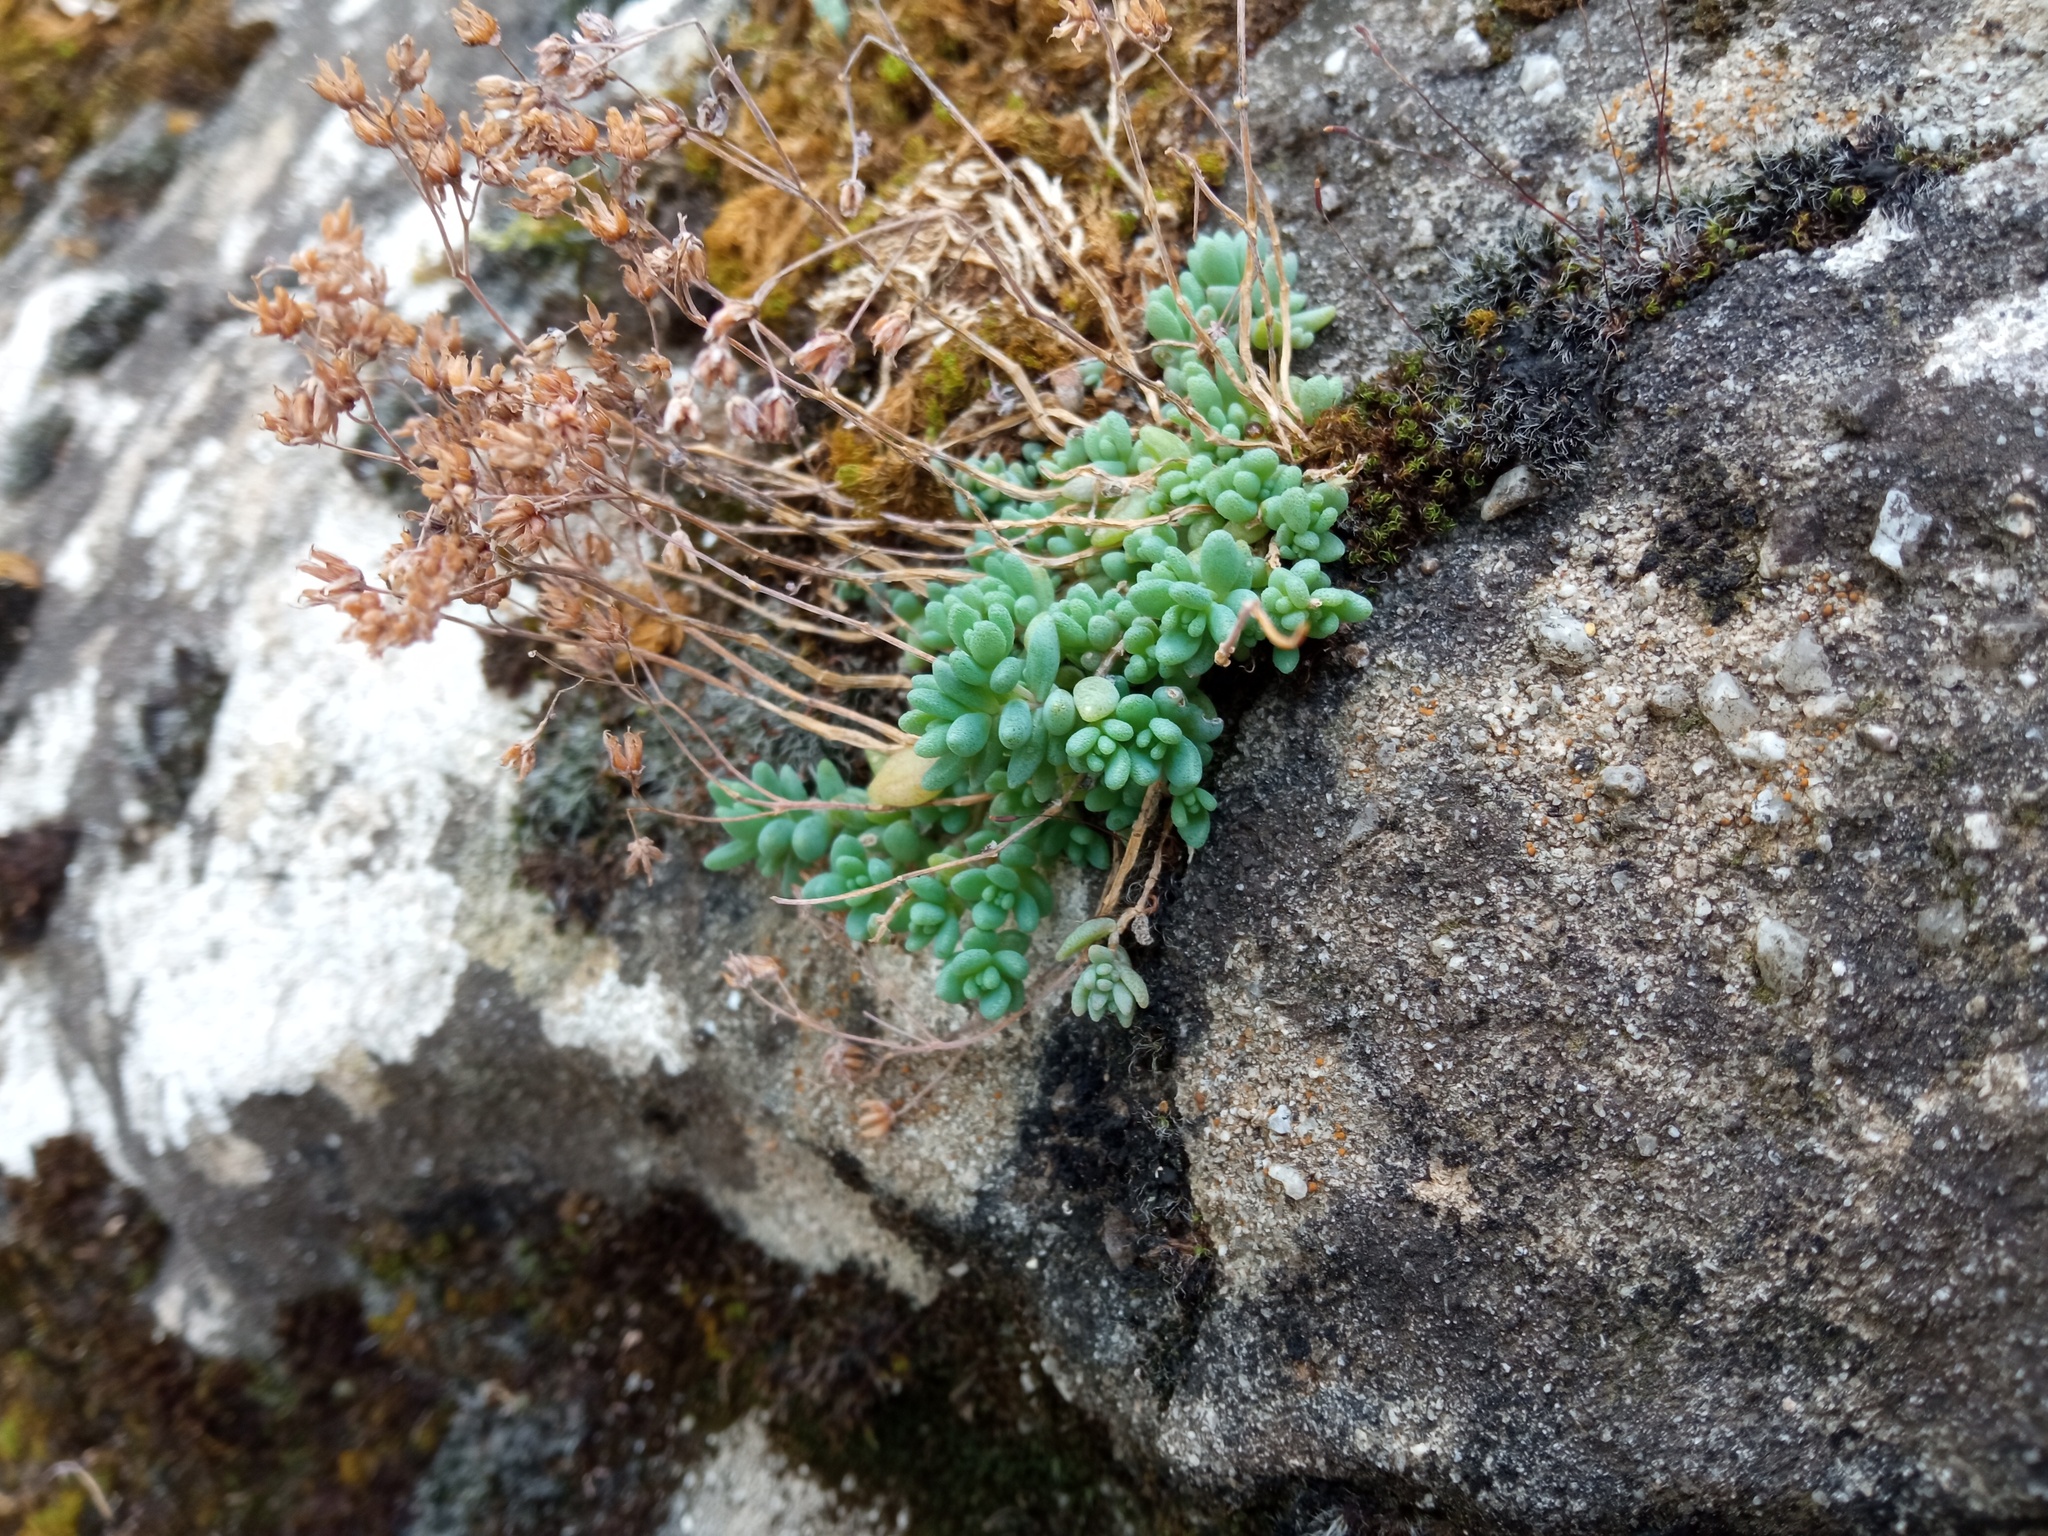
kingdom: Plantae
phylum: Tracheophyta
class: Magnoliopsida
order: Saxifragales
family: Crassulaceae
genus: Sedum
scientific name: Sedum dasyphyllum
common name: Thick-leaf stonecrop
